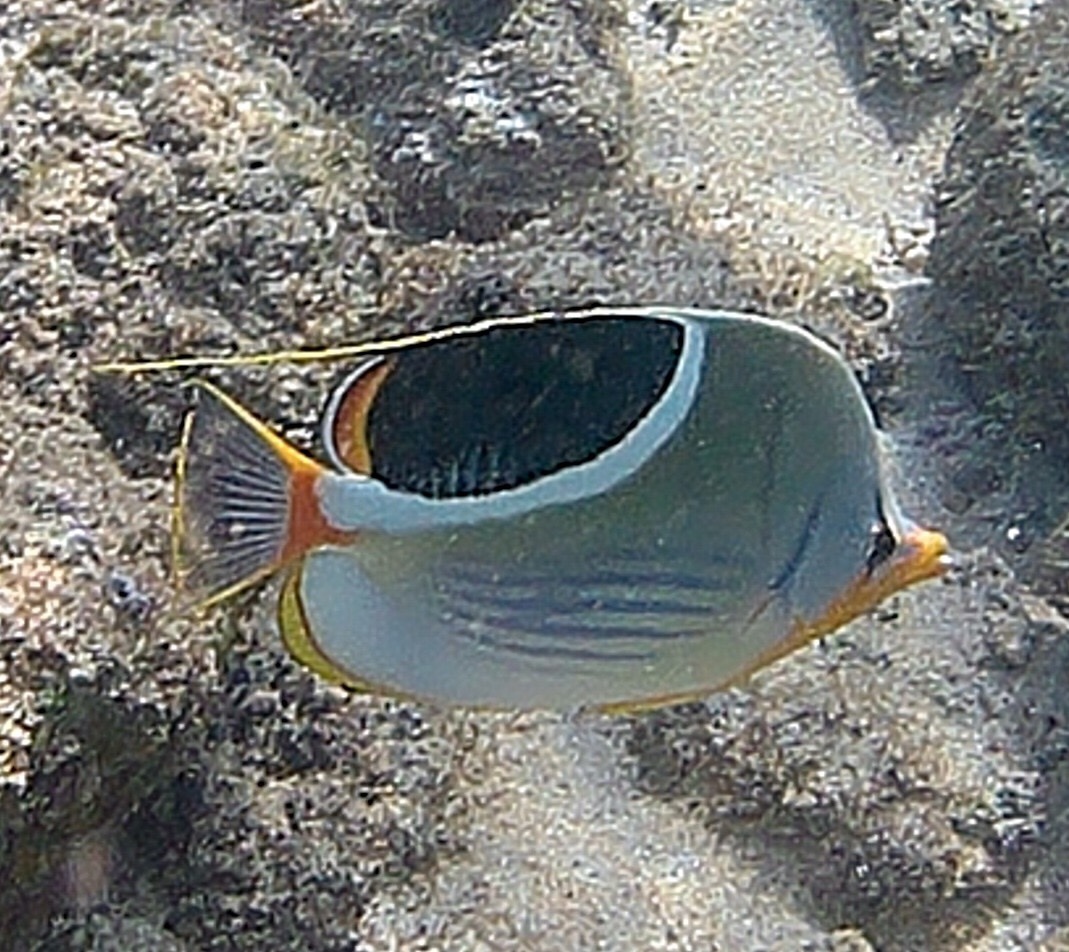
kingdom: Animalia
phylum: Chordata
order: Perciformes
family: Chaetodontidae
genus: Chaetodon
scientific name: Chaetodon ephippium
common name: Saddled butterflyfish
